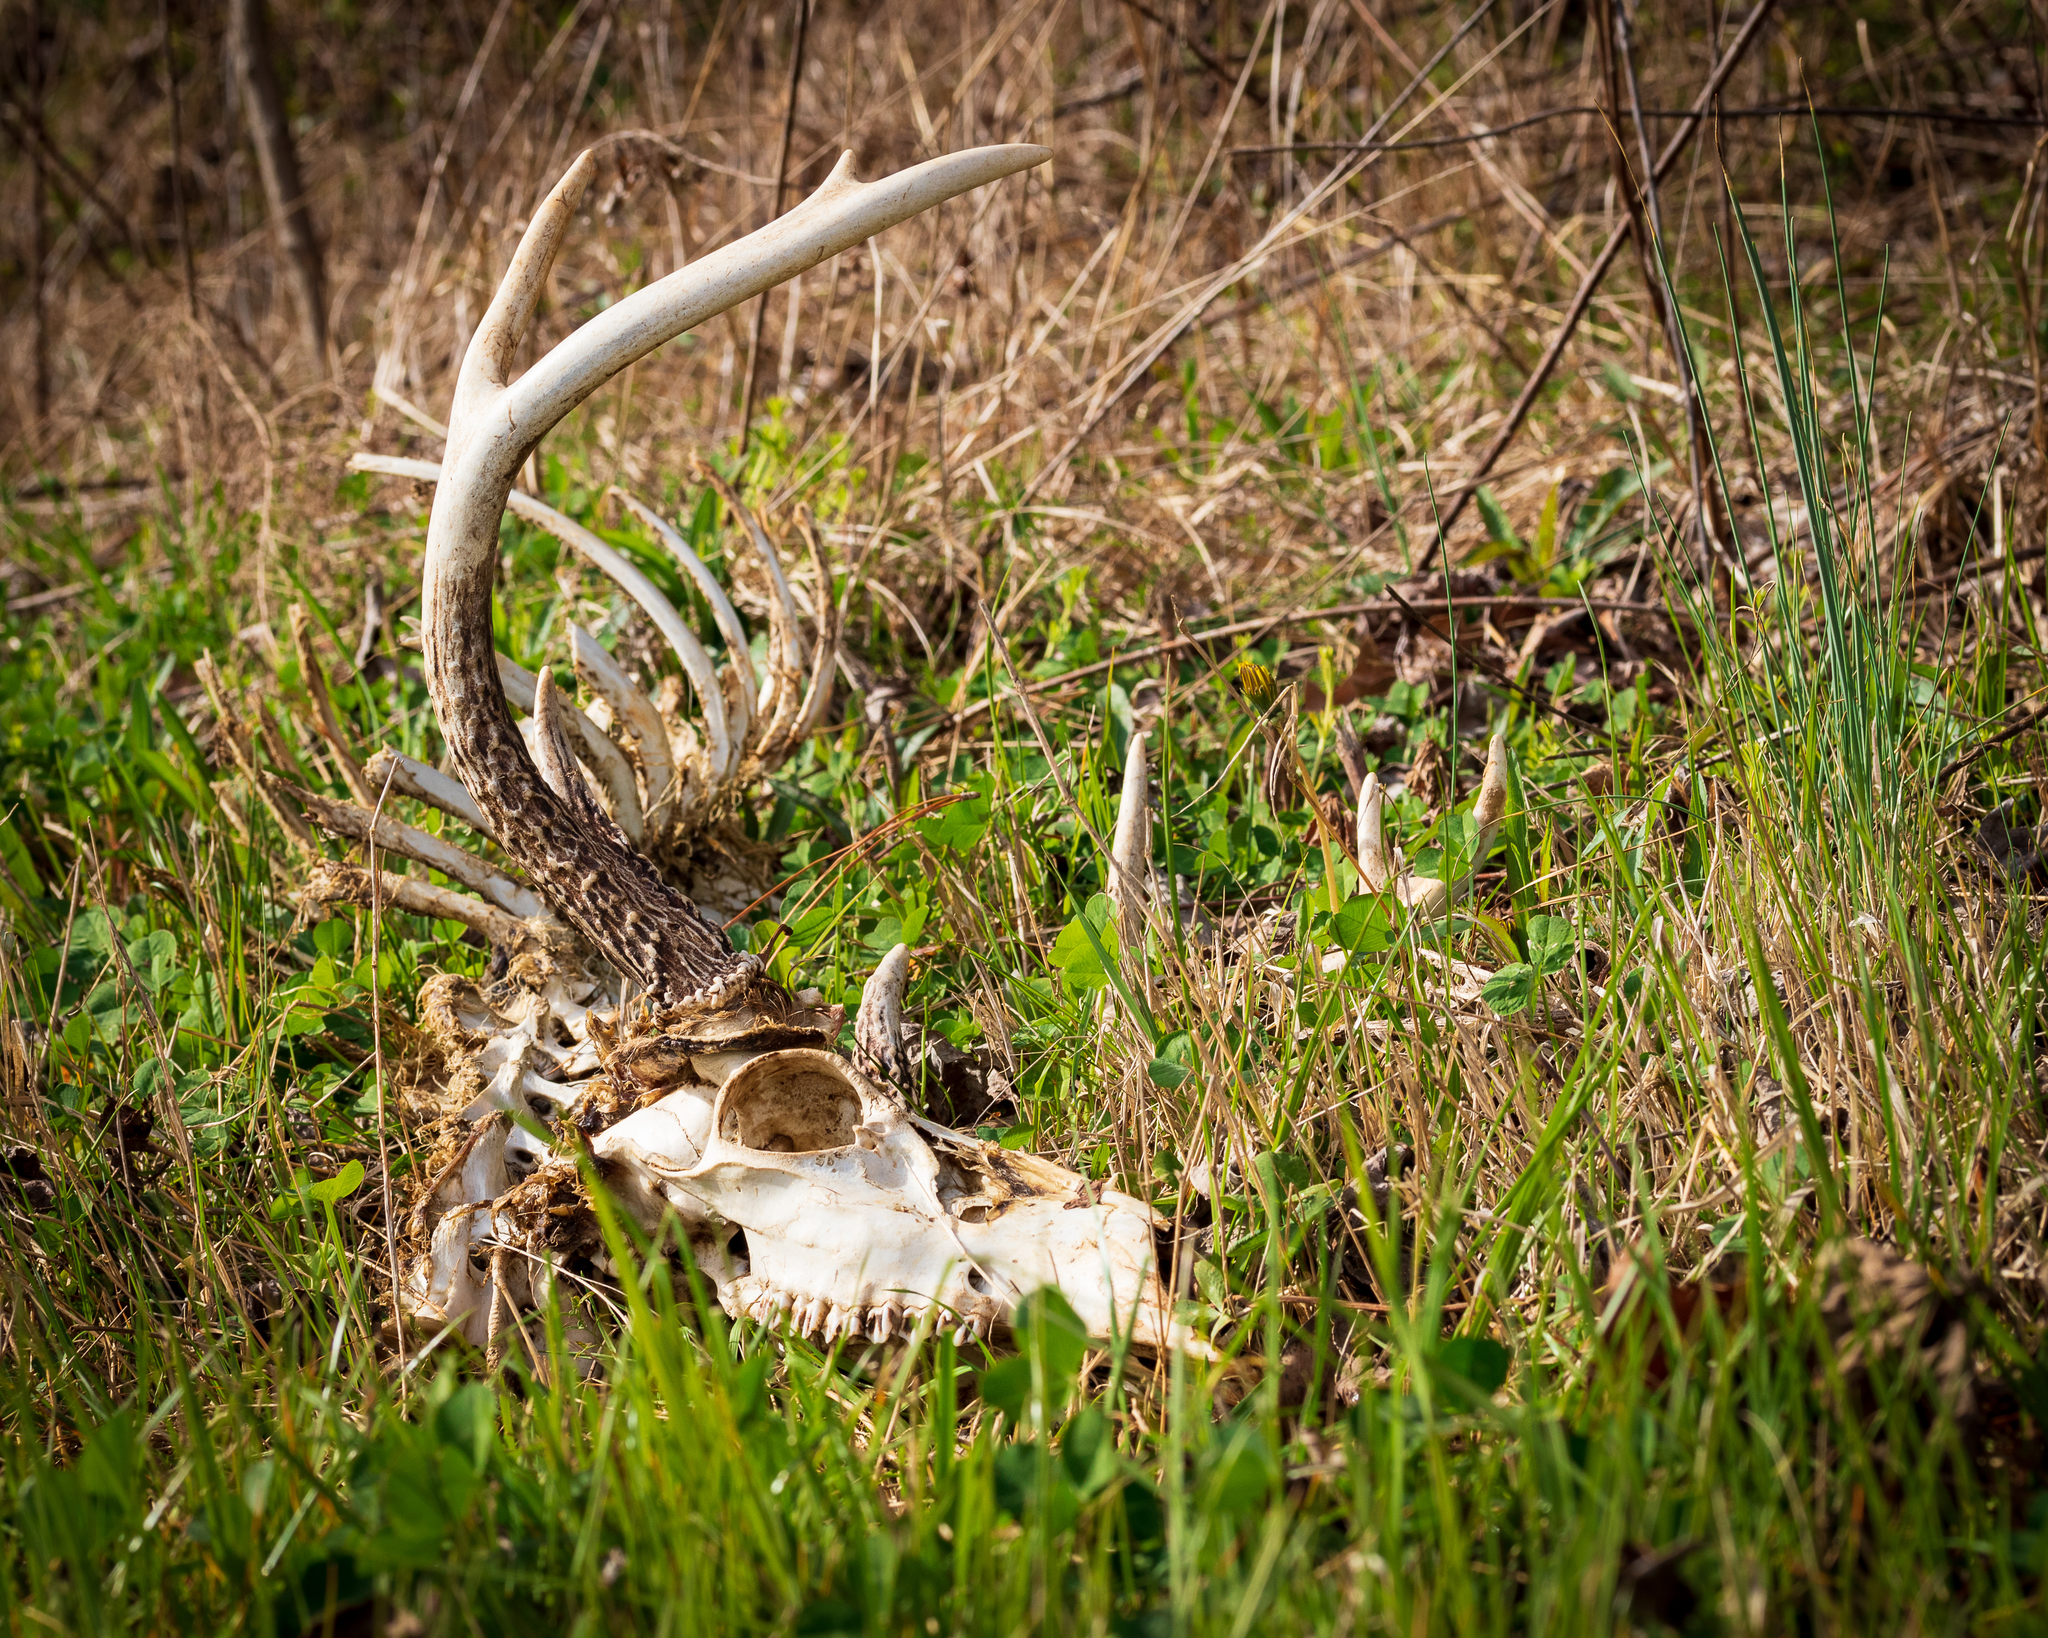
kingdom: Animalia
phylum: Chordata
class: Mammalia
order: Artiodactyla
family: Cervidae
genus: Odocoileus
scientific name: Odocoileus virginianus
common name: White-tailed deer
